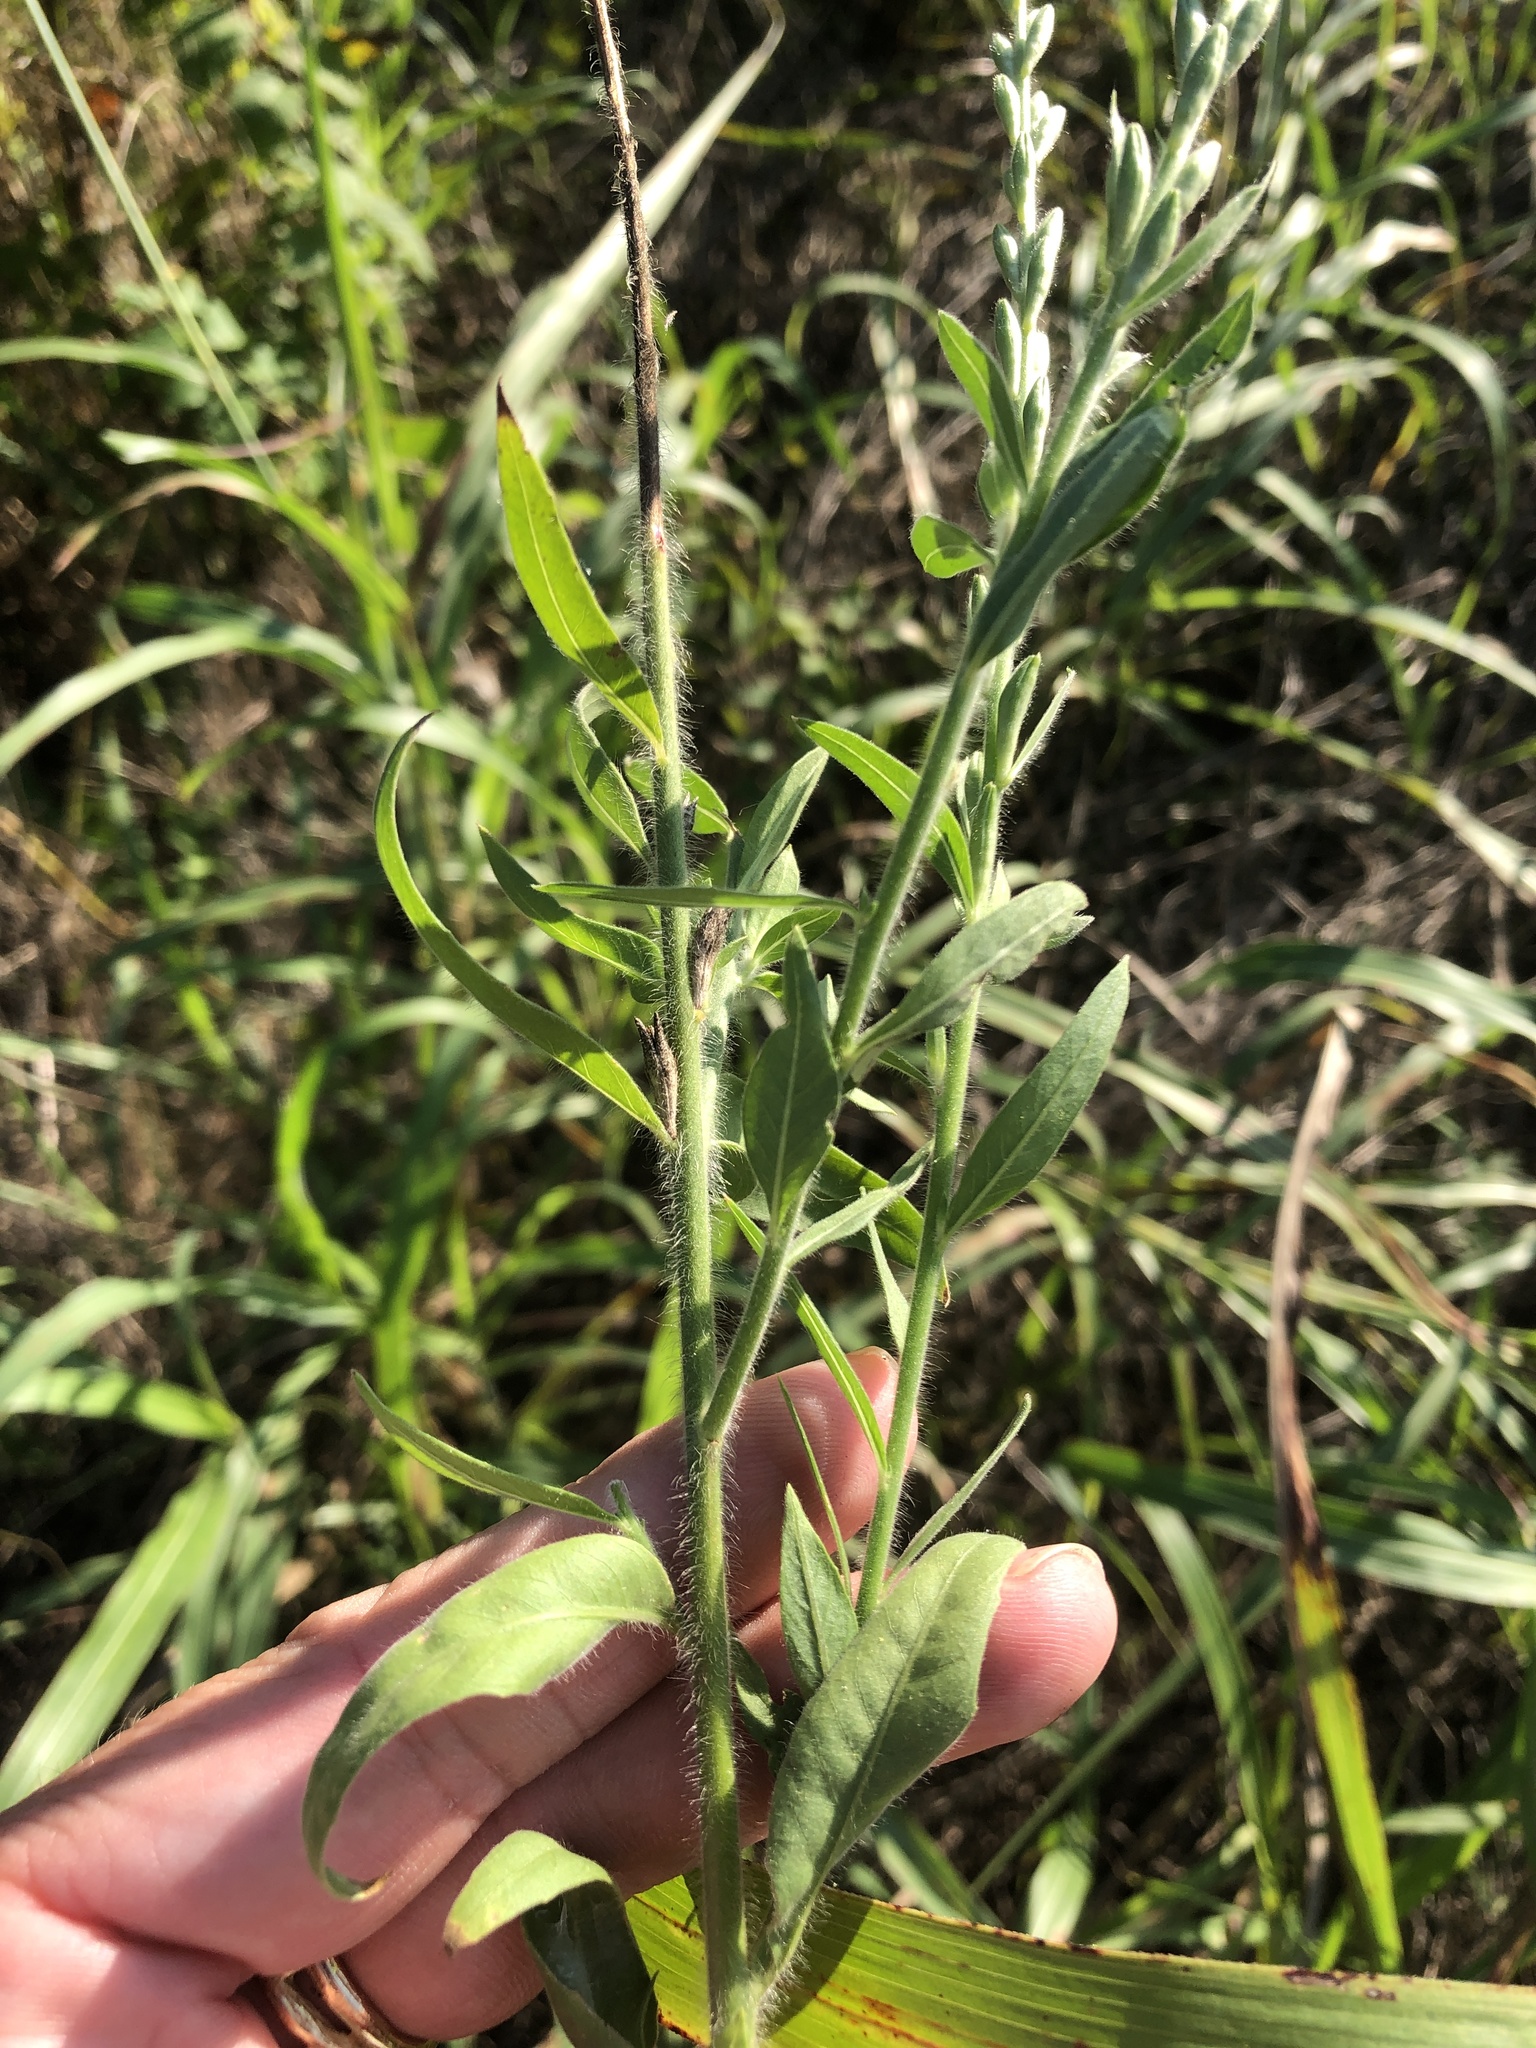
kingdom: Plantae
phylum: Tracheophyta
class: Magnoliopsida
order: Myrtales
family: Onagraceae
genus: Oenothera
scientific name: Oenothera curtiflora
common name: Velvetweed
